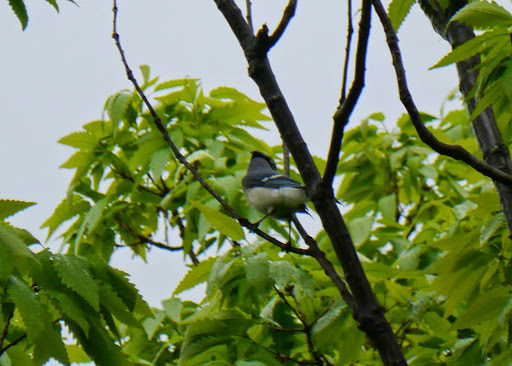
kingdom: Animalia
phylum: Chordata
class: Aves
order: Passeriformes
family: Corvidae
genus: Cyanocitta
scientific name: Cyanocitta cristata
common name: Blue jay
